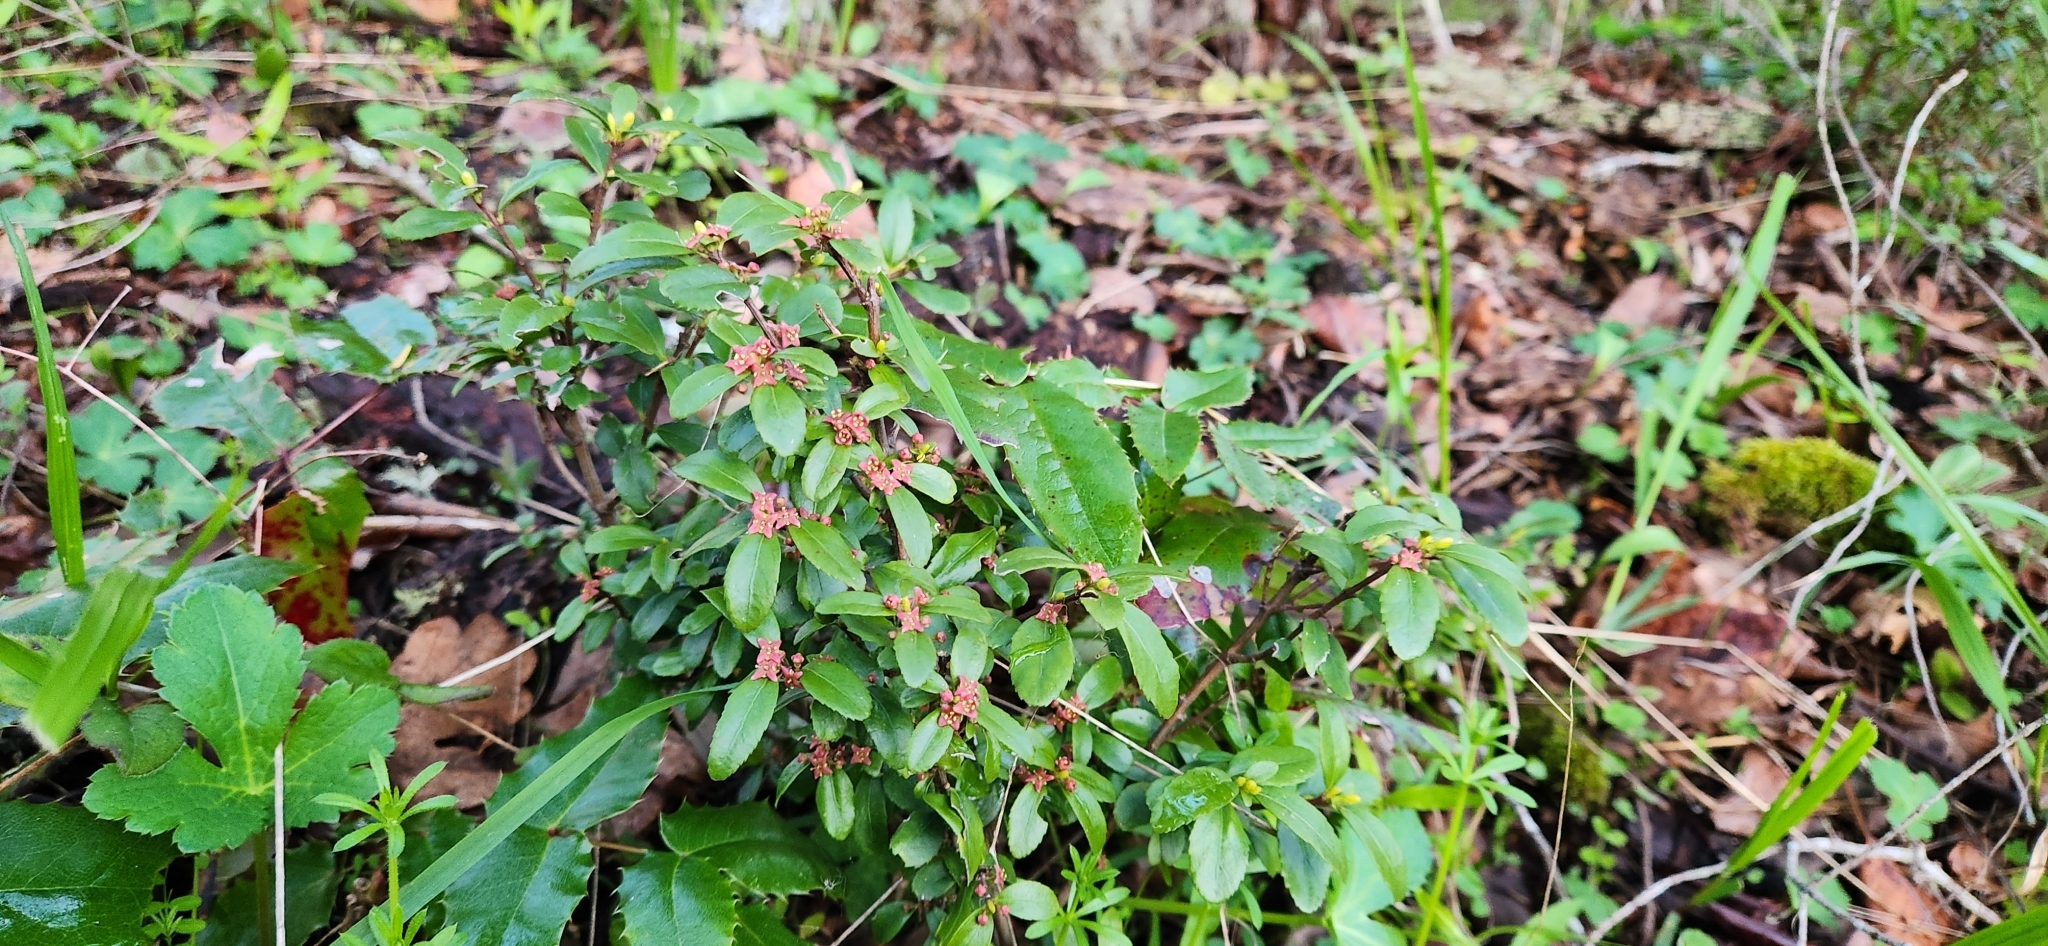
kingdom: Plantae
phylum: Tracheophyta
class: Magnoliopsida
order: Celastrales
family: Celastraceae
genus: Paxistima
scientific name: Paxistima myrsinites
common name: Mountain-lover
